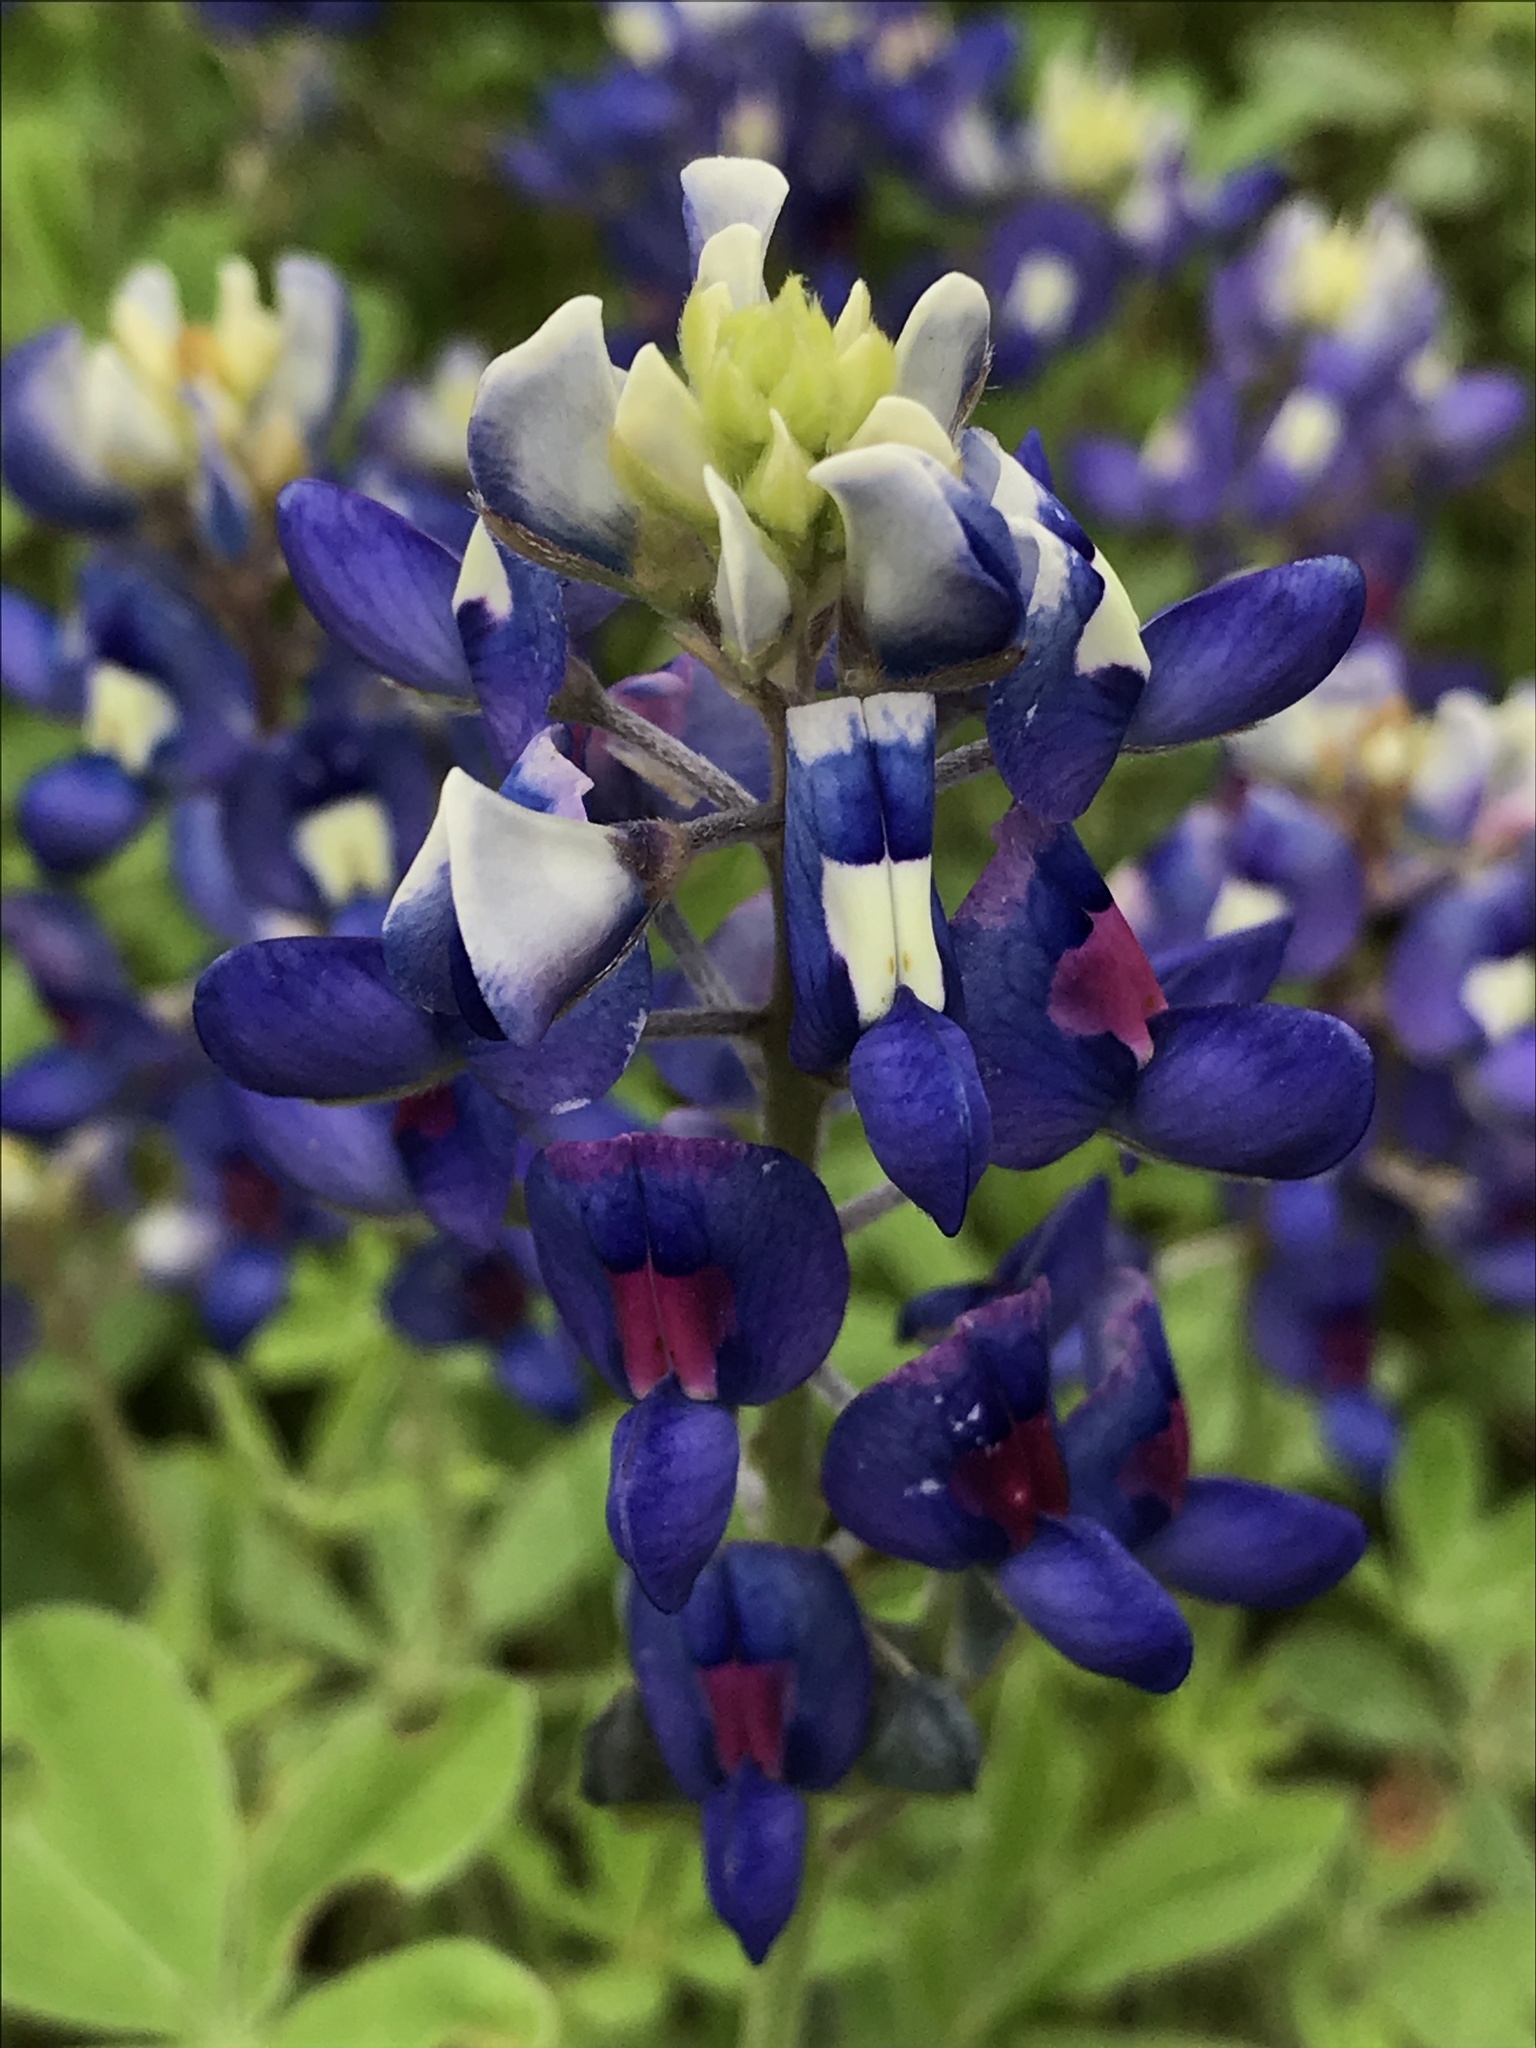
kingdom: Plantae
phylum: Tracheophyta
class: Magnoliopsida
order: Fabales
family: Fabaceae
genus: Lupinus
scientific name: Lupinus texensis
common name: Texas bluebonnet
